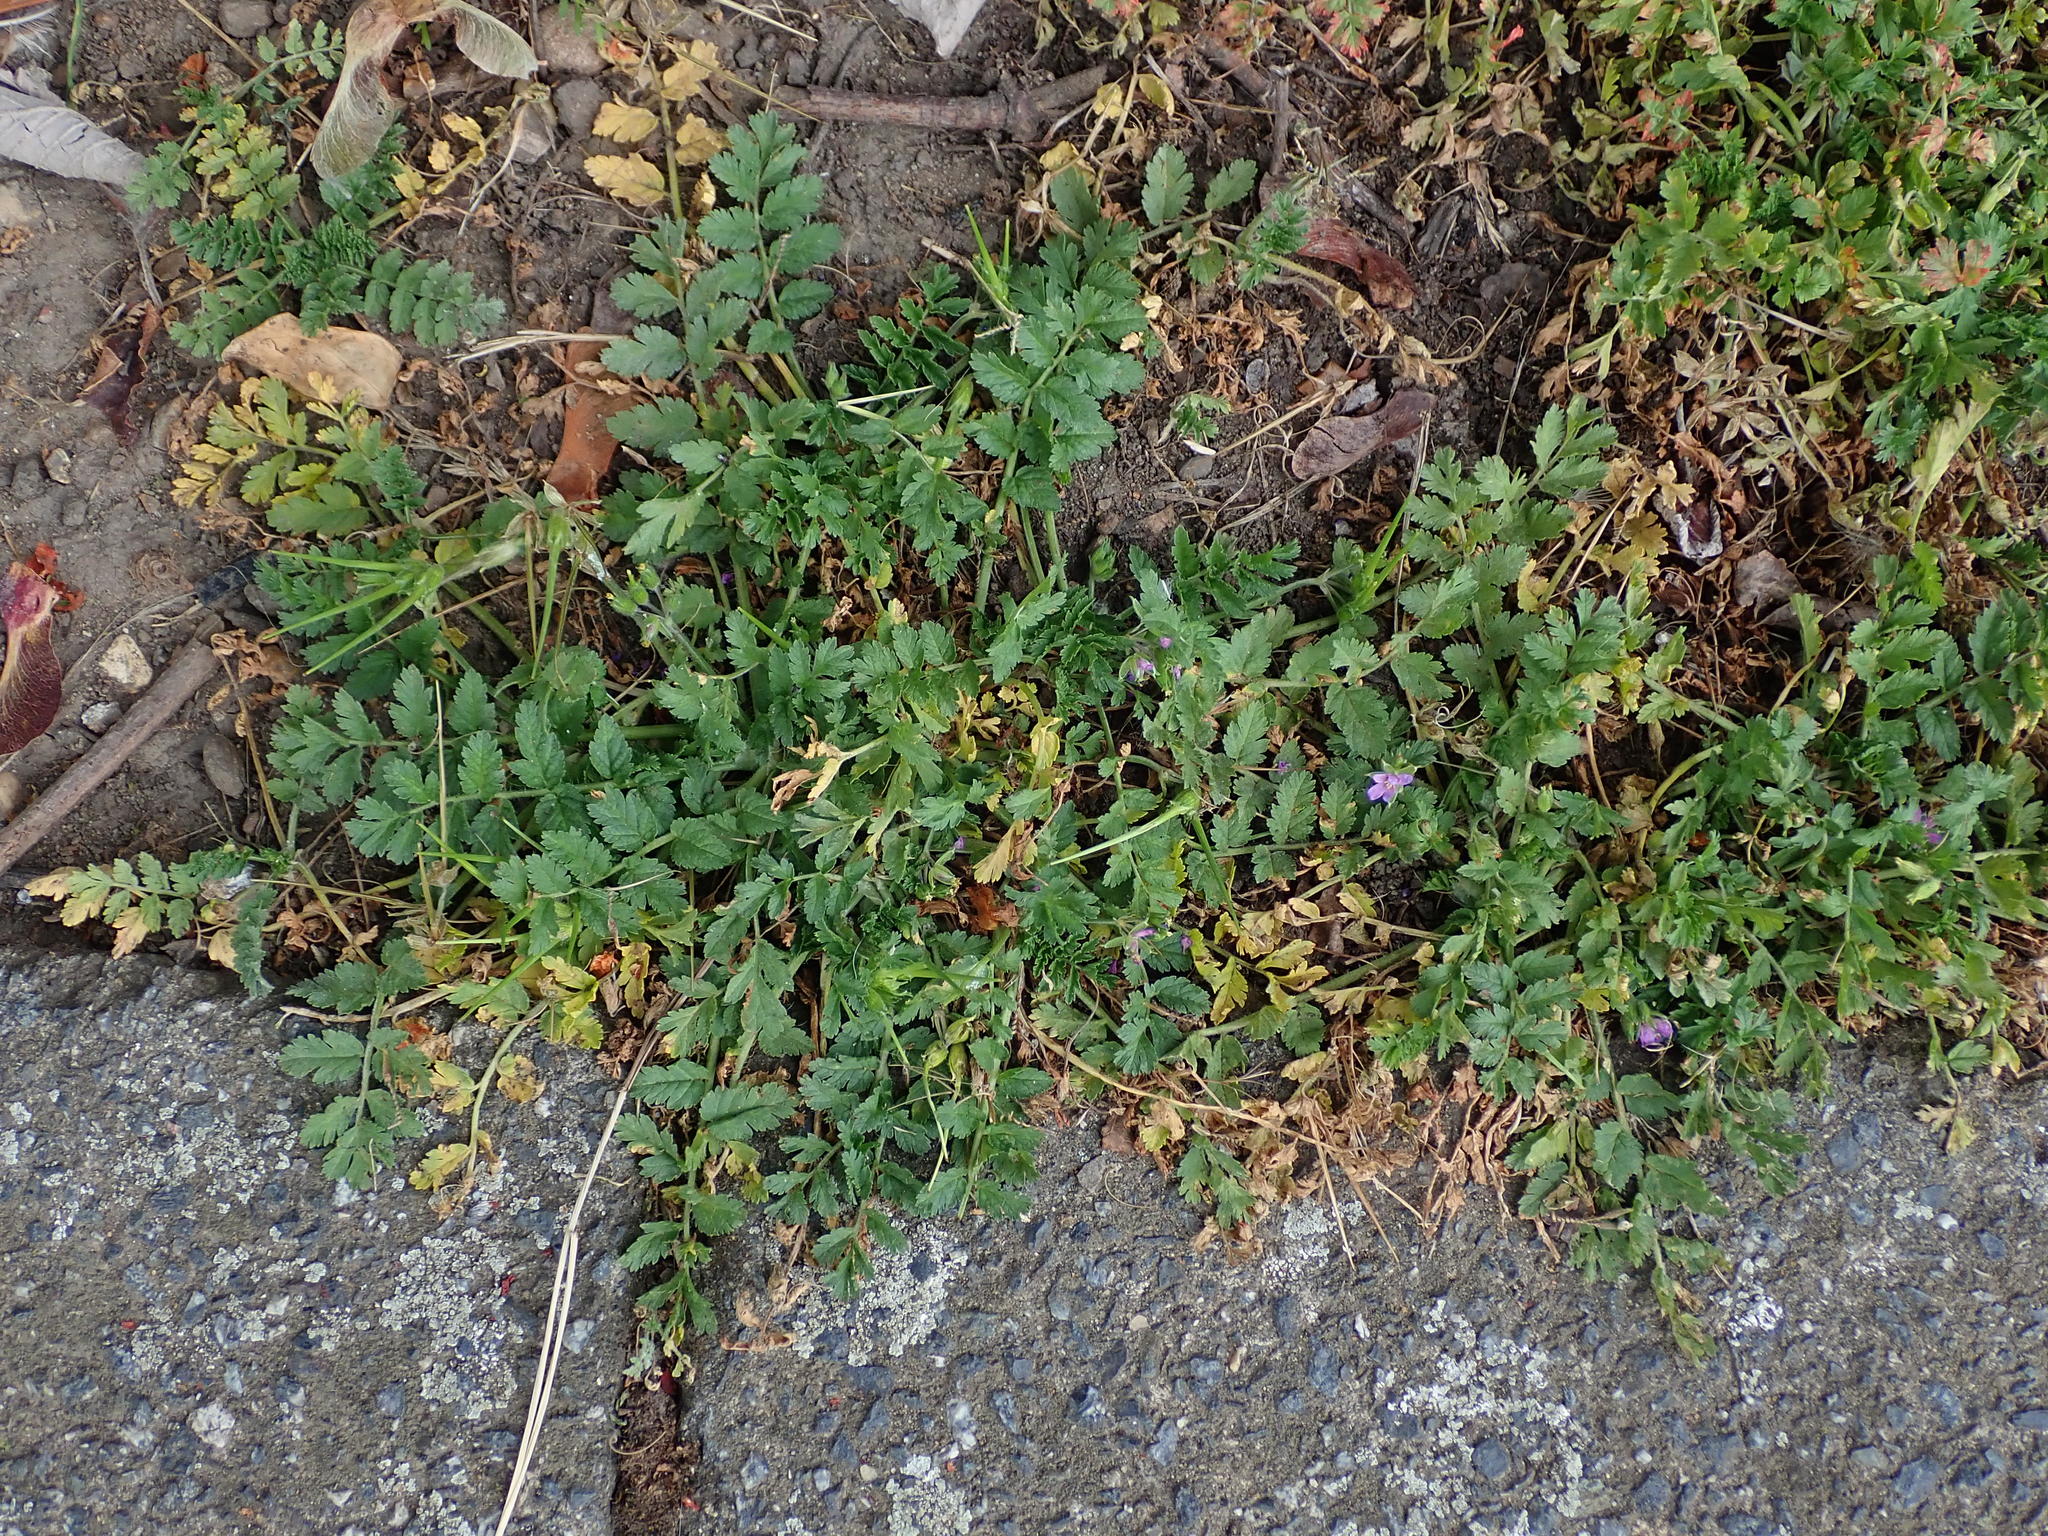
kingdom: Plantae
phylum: Tracheophyta
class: Magnoliopsida
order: Geraniales
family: Geraniaceae
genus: Erodium
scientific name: Erodium moschatum
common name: Musk stork's-bill
